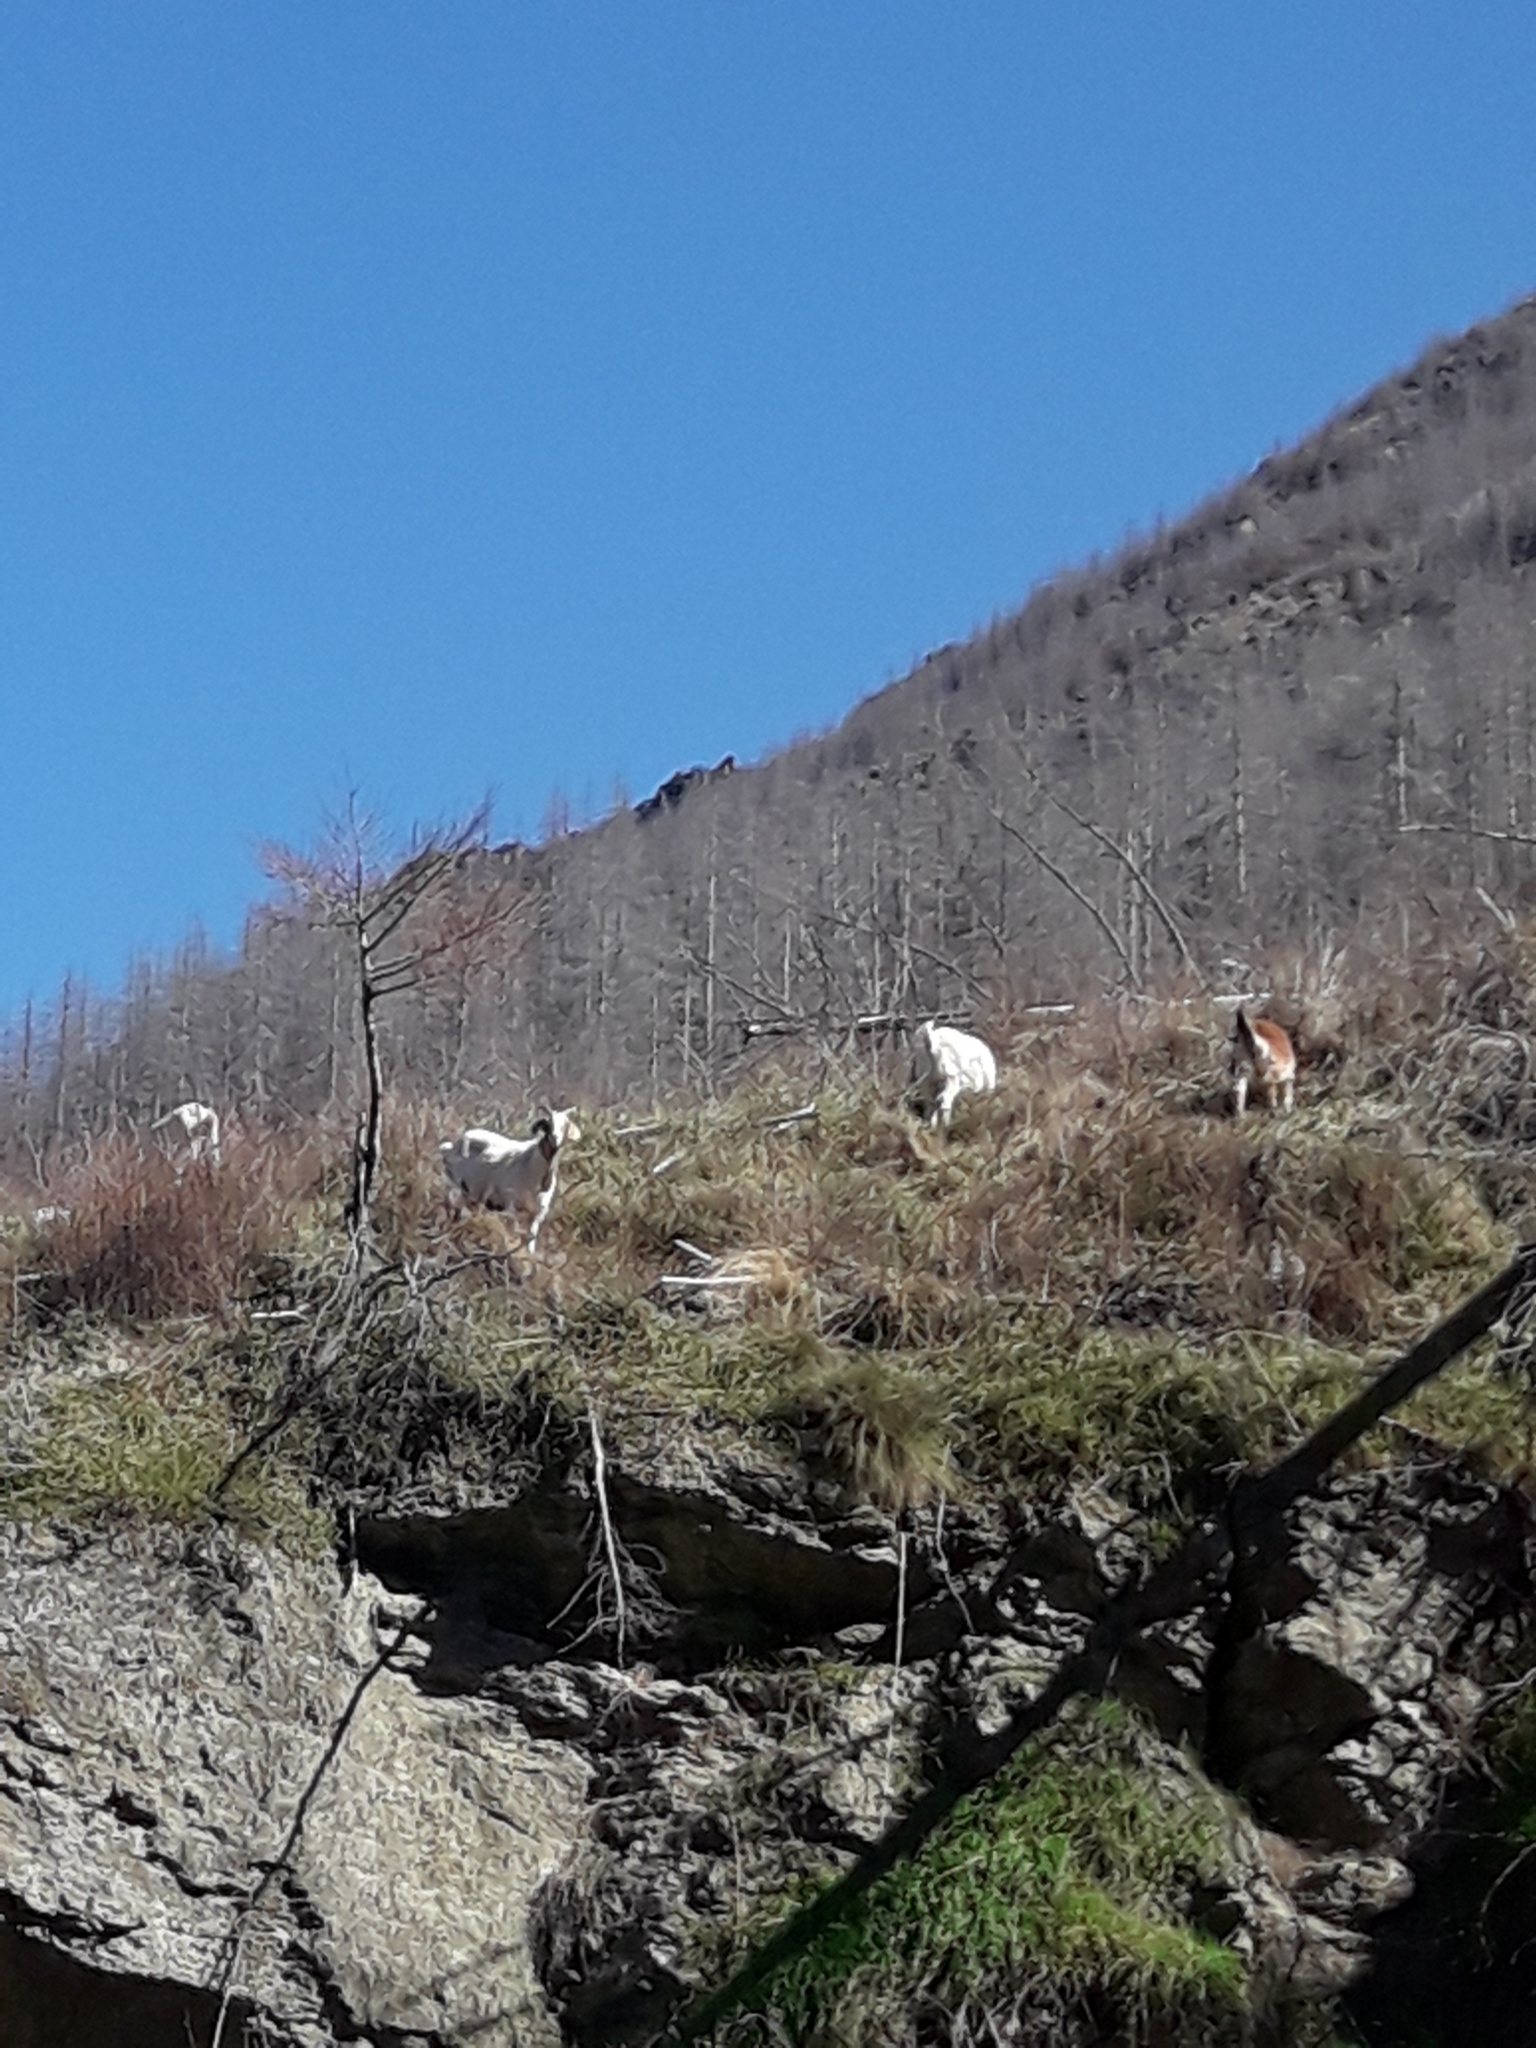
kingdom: Animalia
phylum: Chordata
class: Mammalia
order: Artiodactyla
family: Bovidae
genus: Capra
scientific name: Capra hircus
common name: Domestic goat
